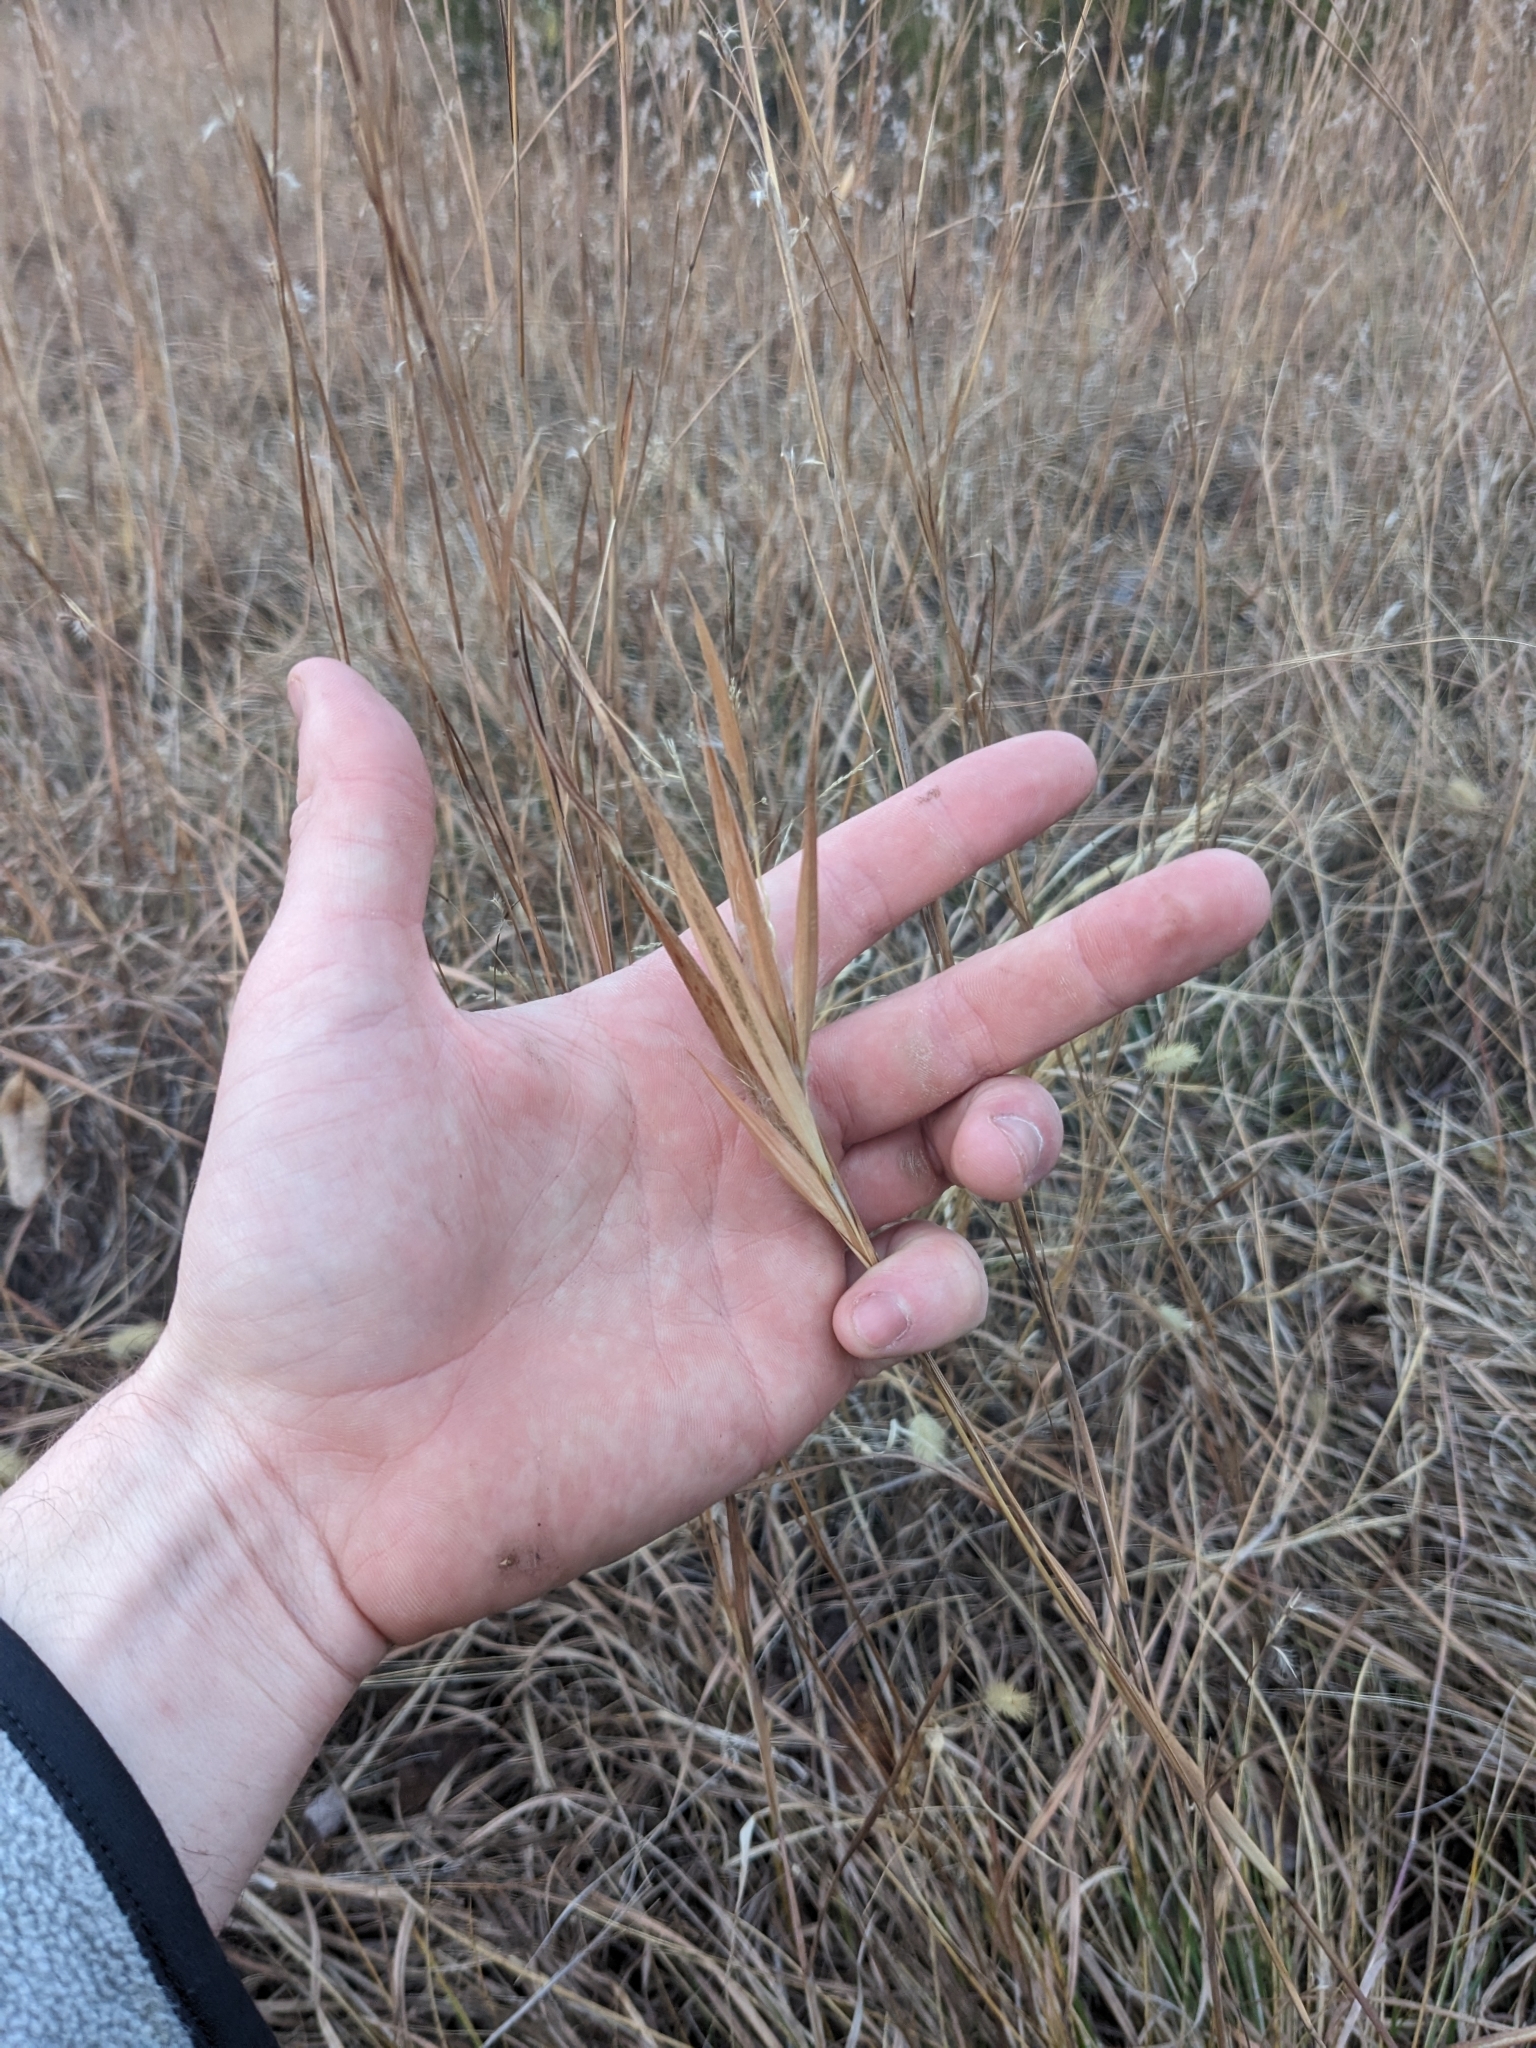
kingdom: Plantae
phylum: Tracheophyta
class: Liliopsida
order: Poales
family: Poaceae
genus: Andropogon
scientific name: Andropogon gyrans
